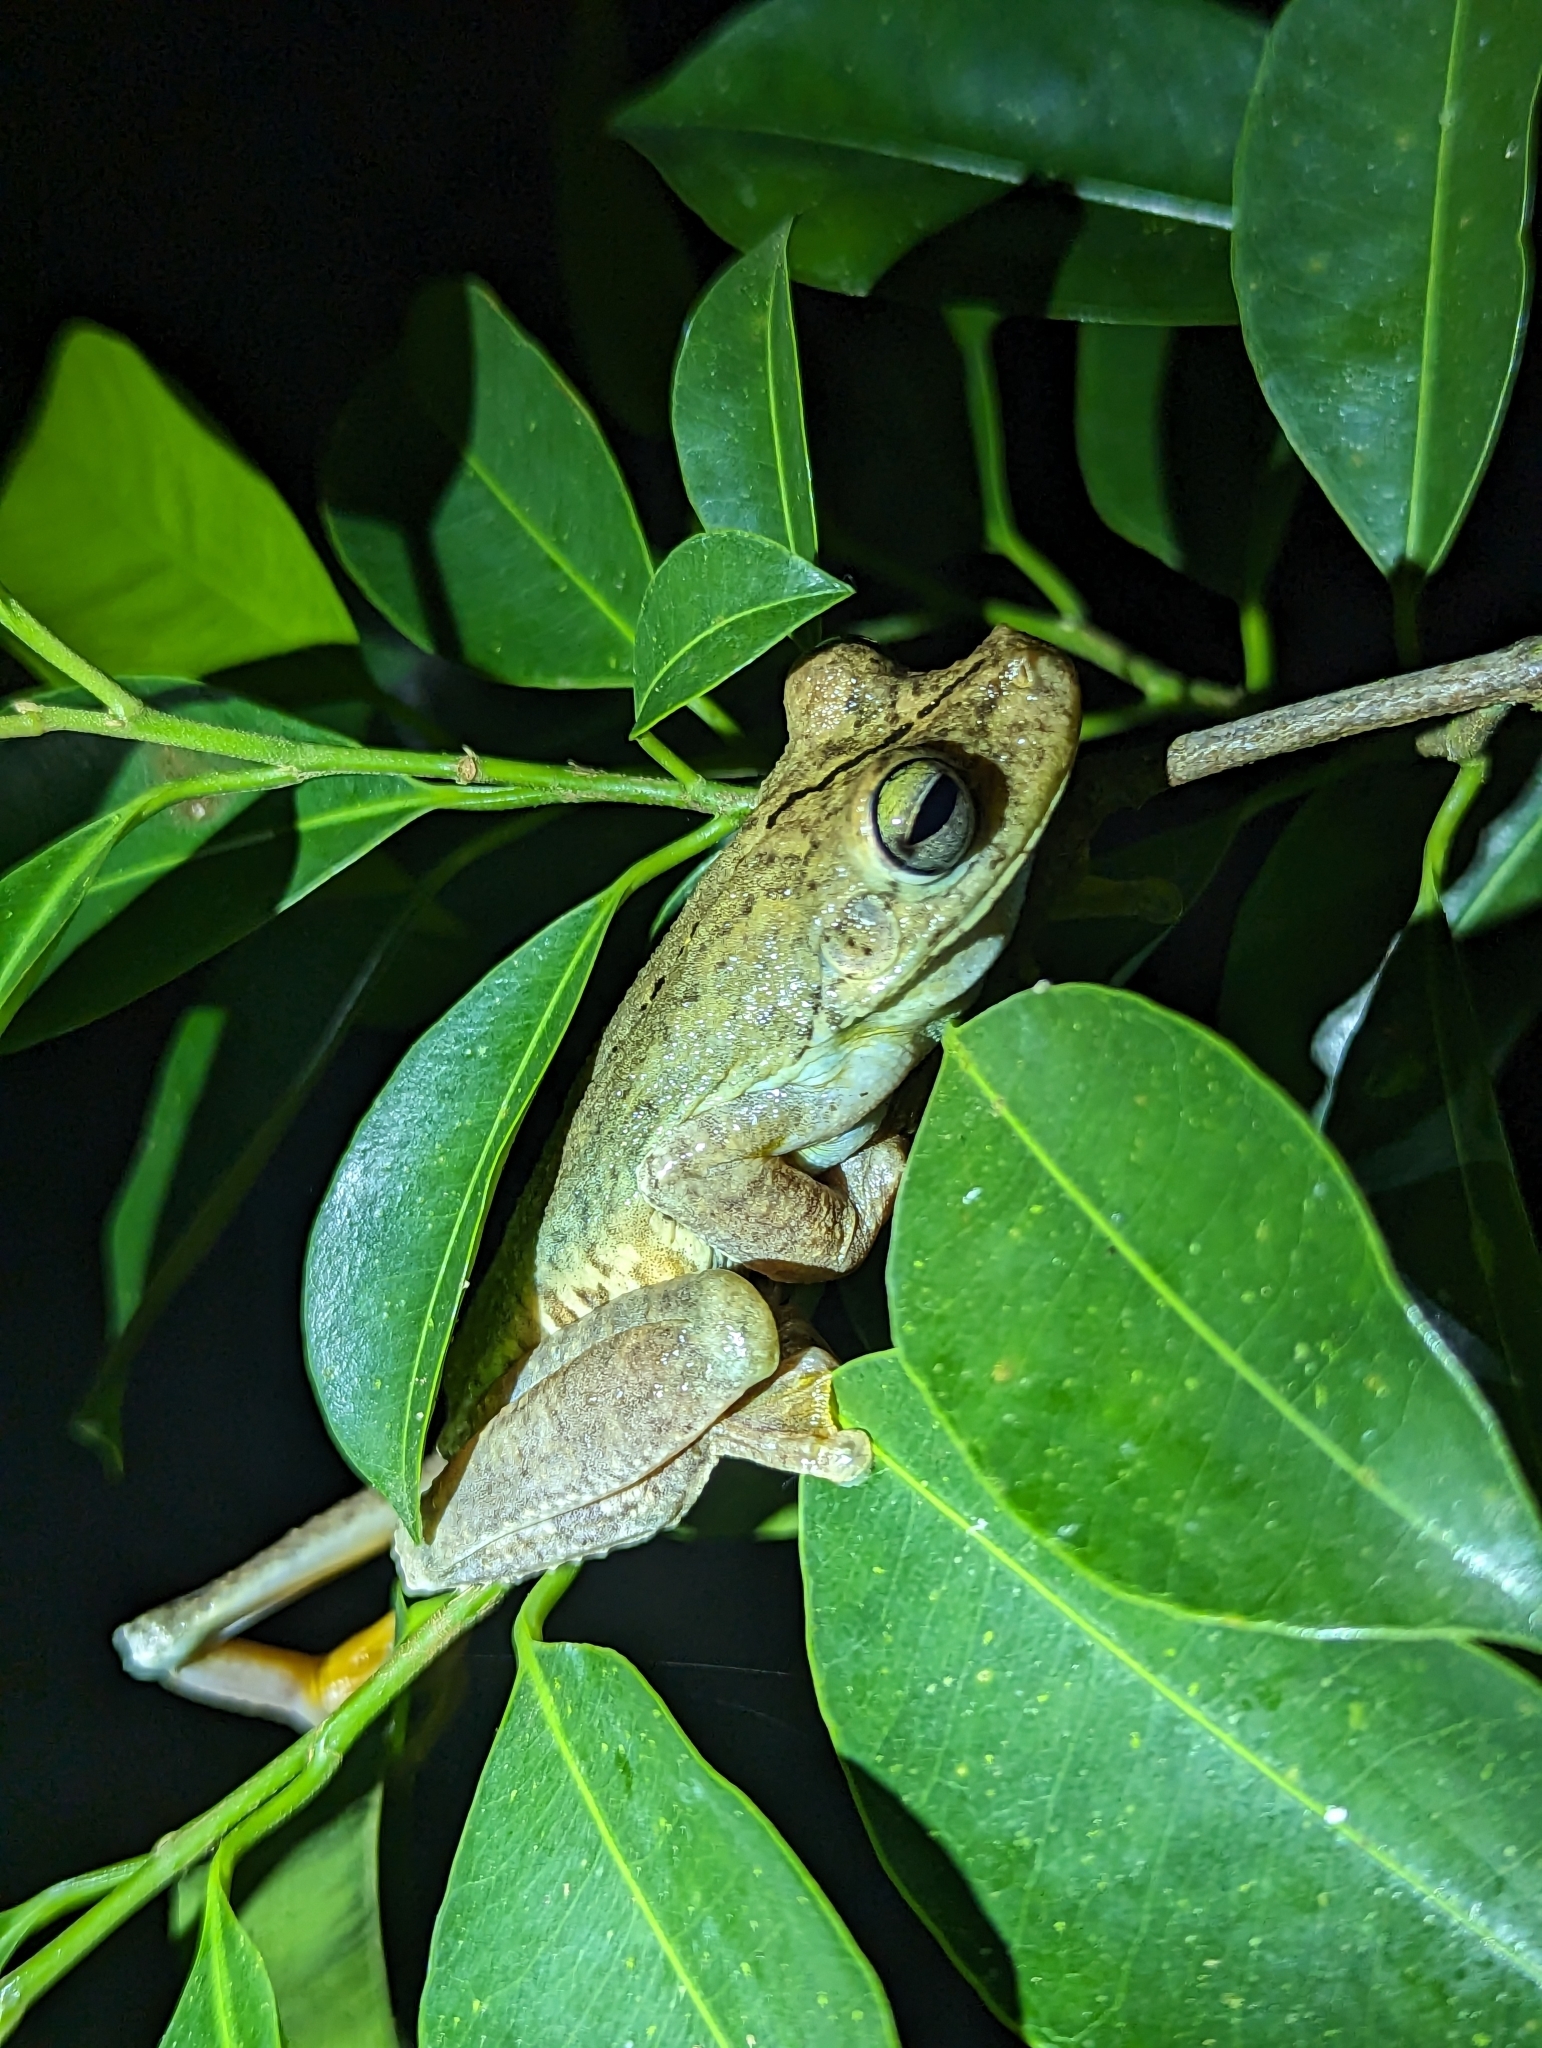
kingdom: Animalia
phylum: Chordata
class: Amphibia
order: Anura
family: Hylidae
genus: Boana
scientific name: Boana rosenbergi
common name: Rosenberg´s gladiator treefrog
